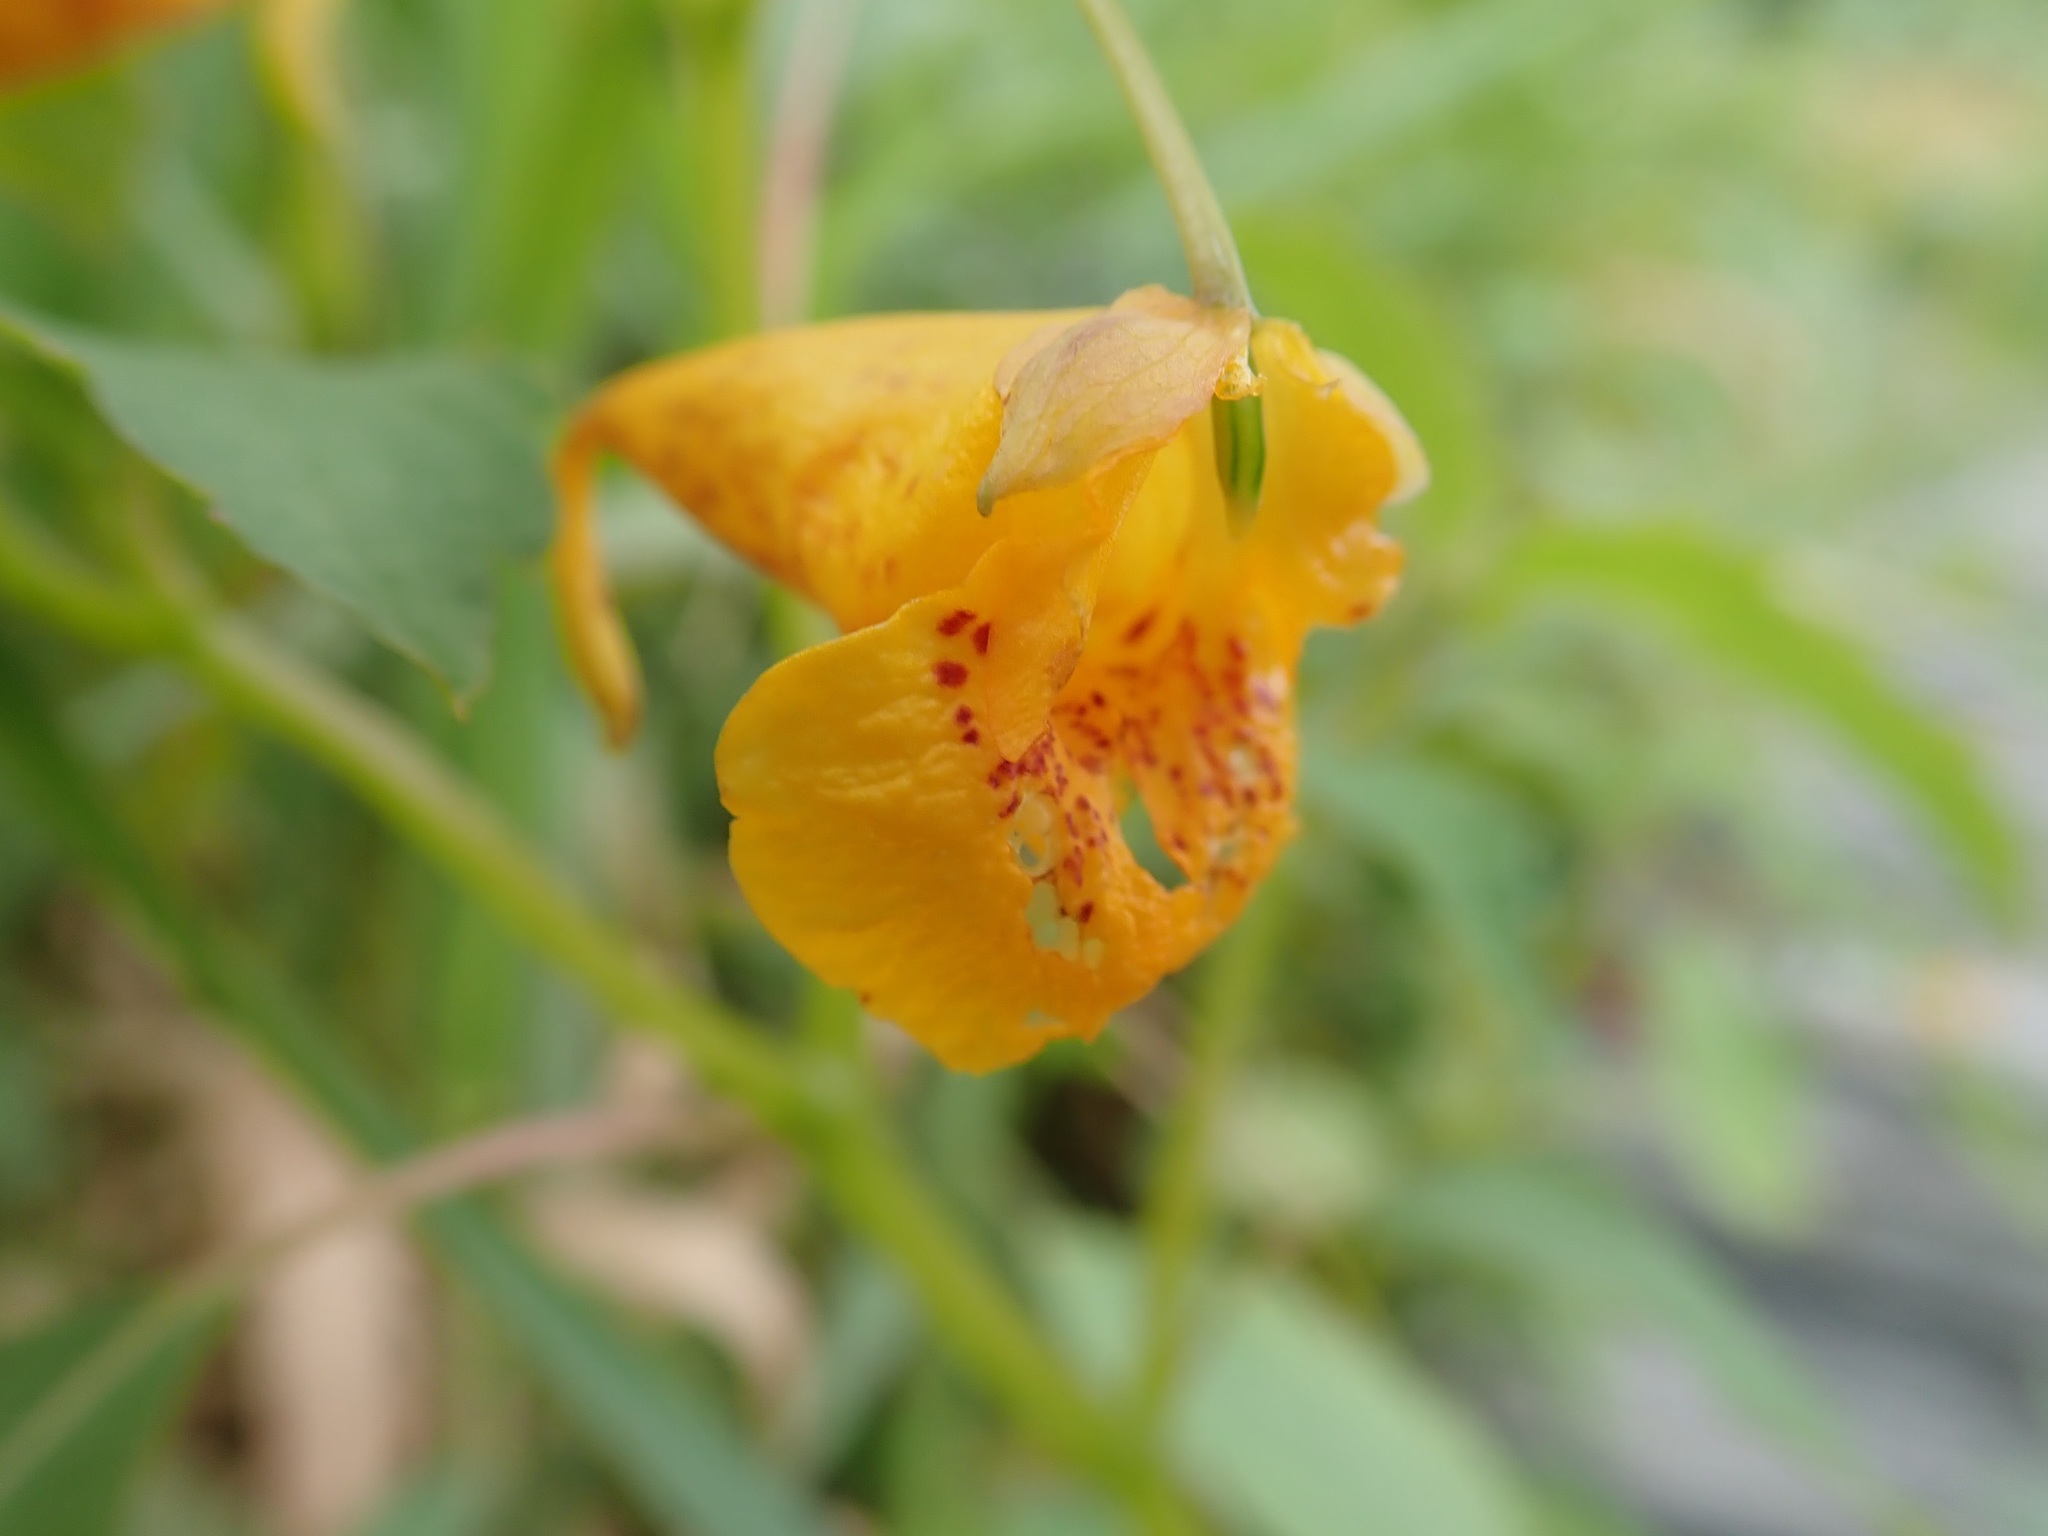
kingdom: Plantae
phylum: Tracheophyta
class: Magnoliopsida
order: Ericales
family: Balsaminaceae
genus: Impatiens
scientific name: Impatiens capensis
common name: Orange balsam
